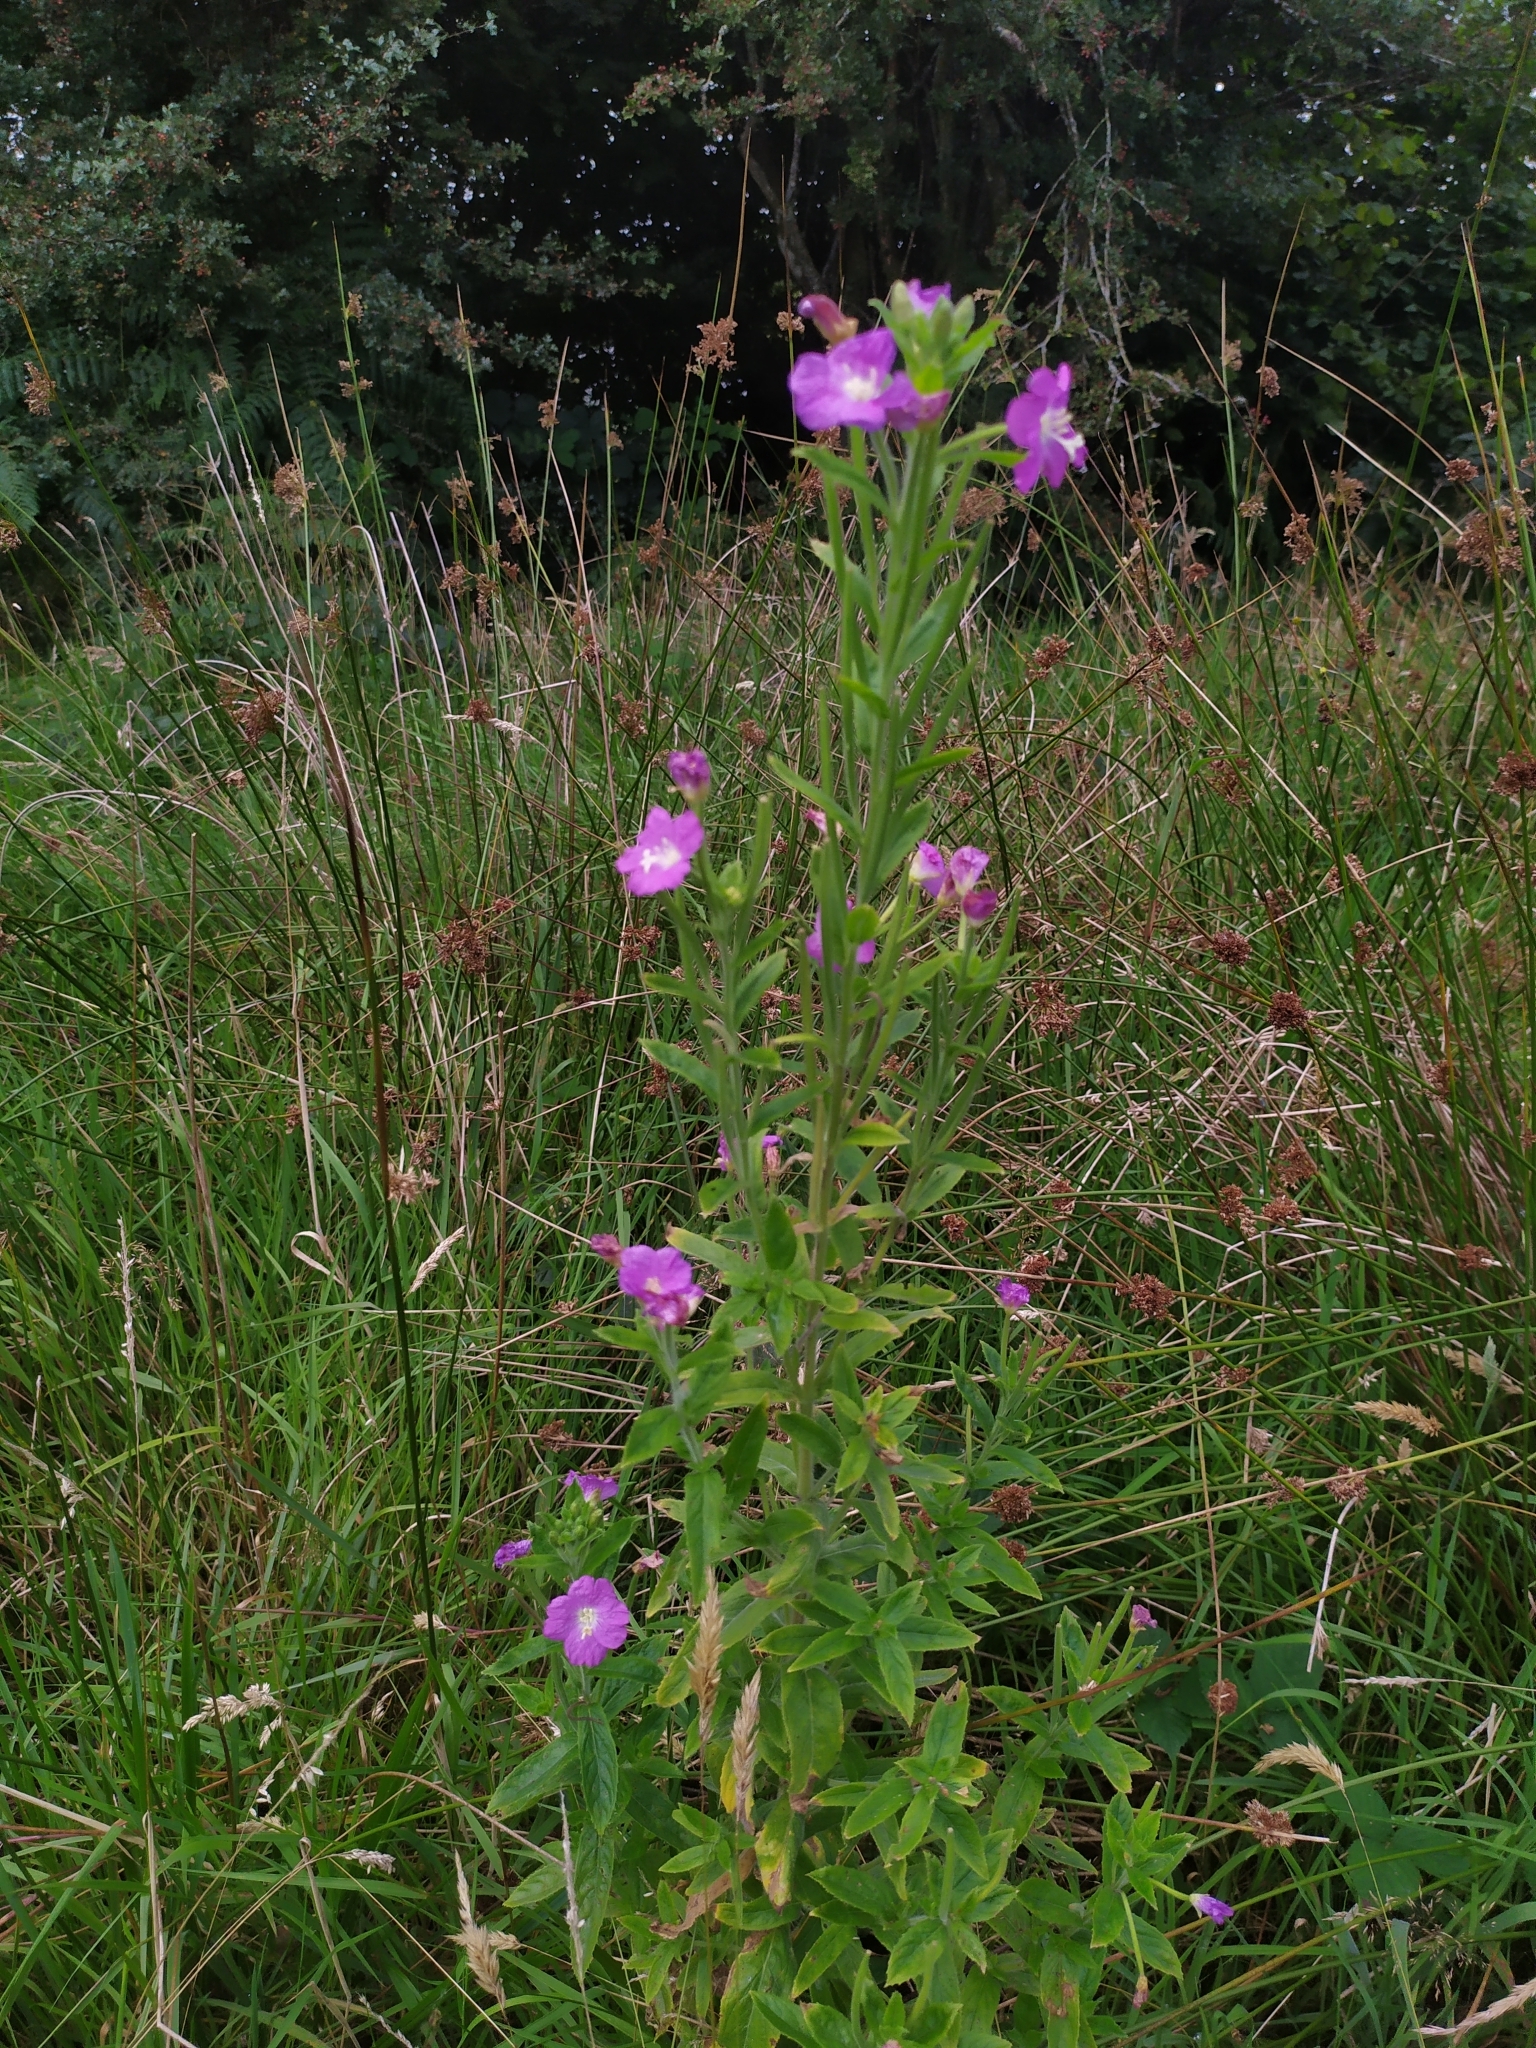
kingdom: Plantae
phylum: Tracheophyta
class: Magnoliopsida
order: Myrtales
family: Onagraceae
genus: Epilobium
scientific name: Epilobium hirsutum
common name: Great willowherb
